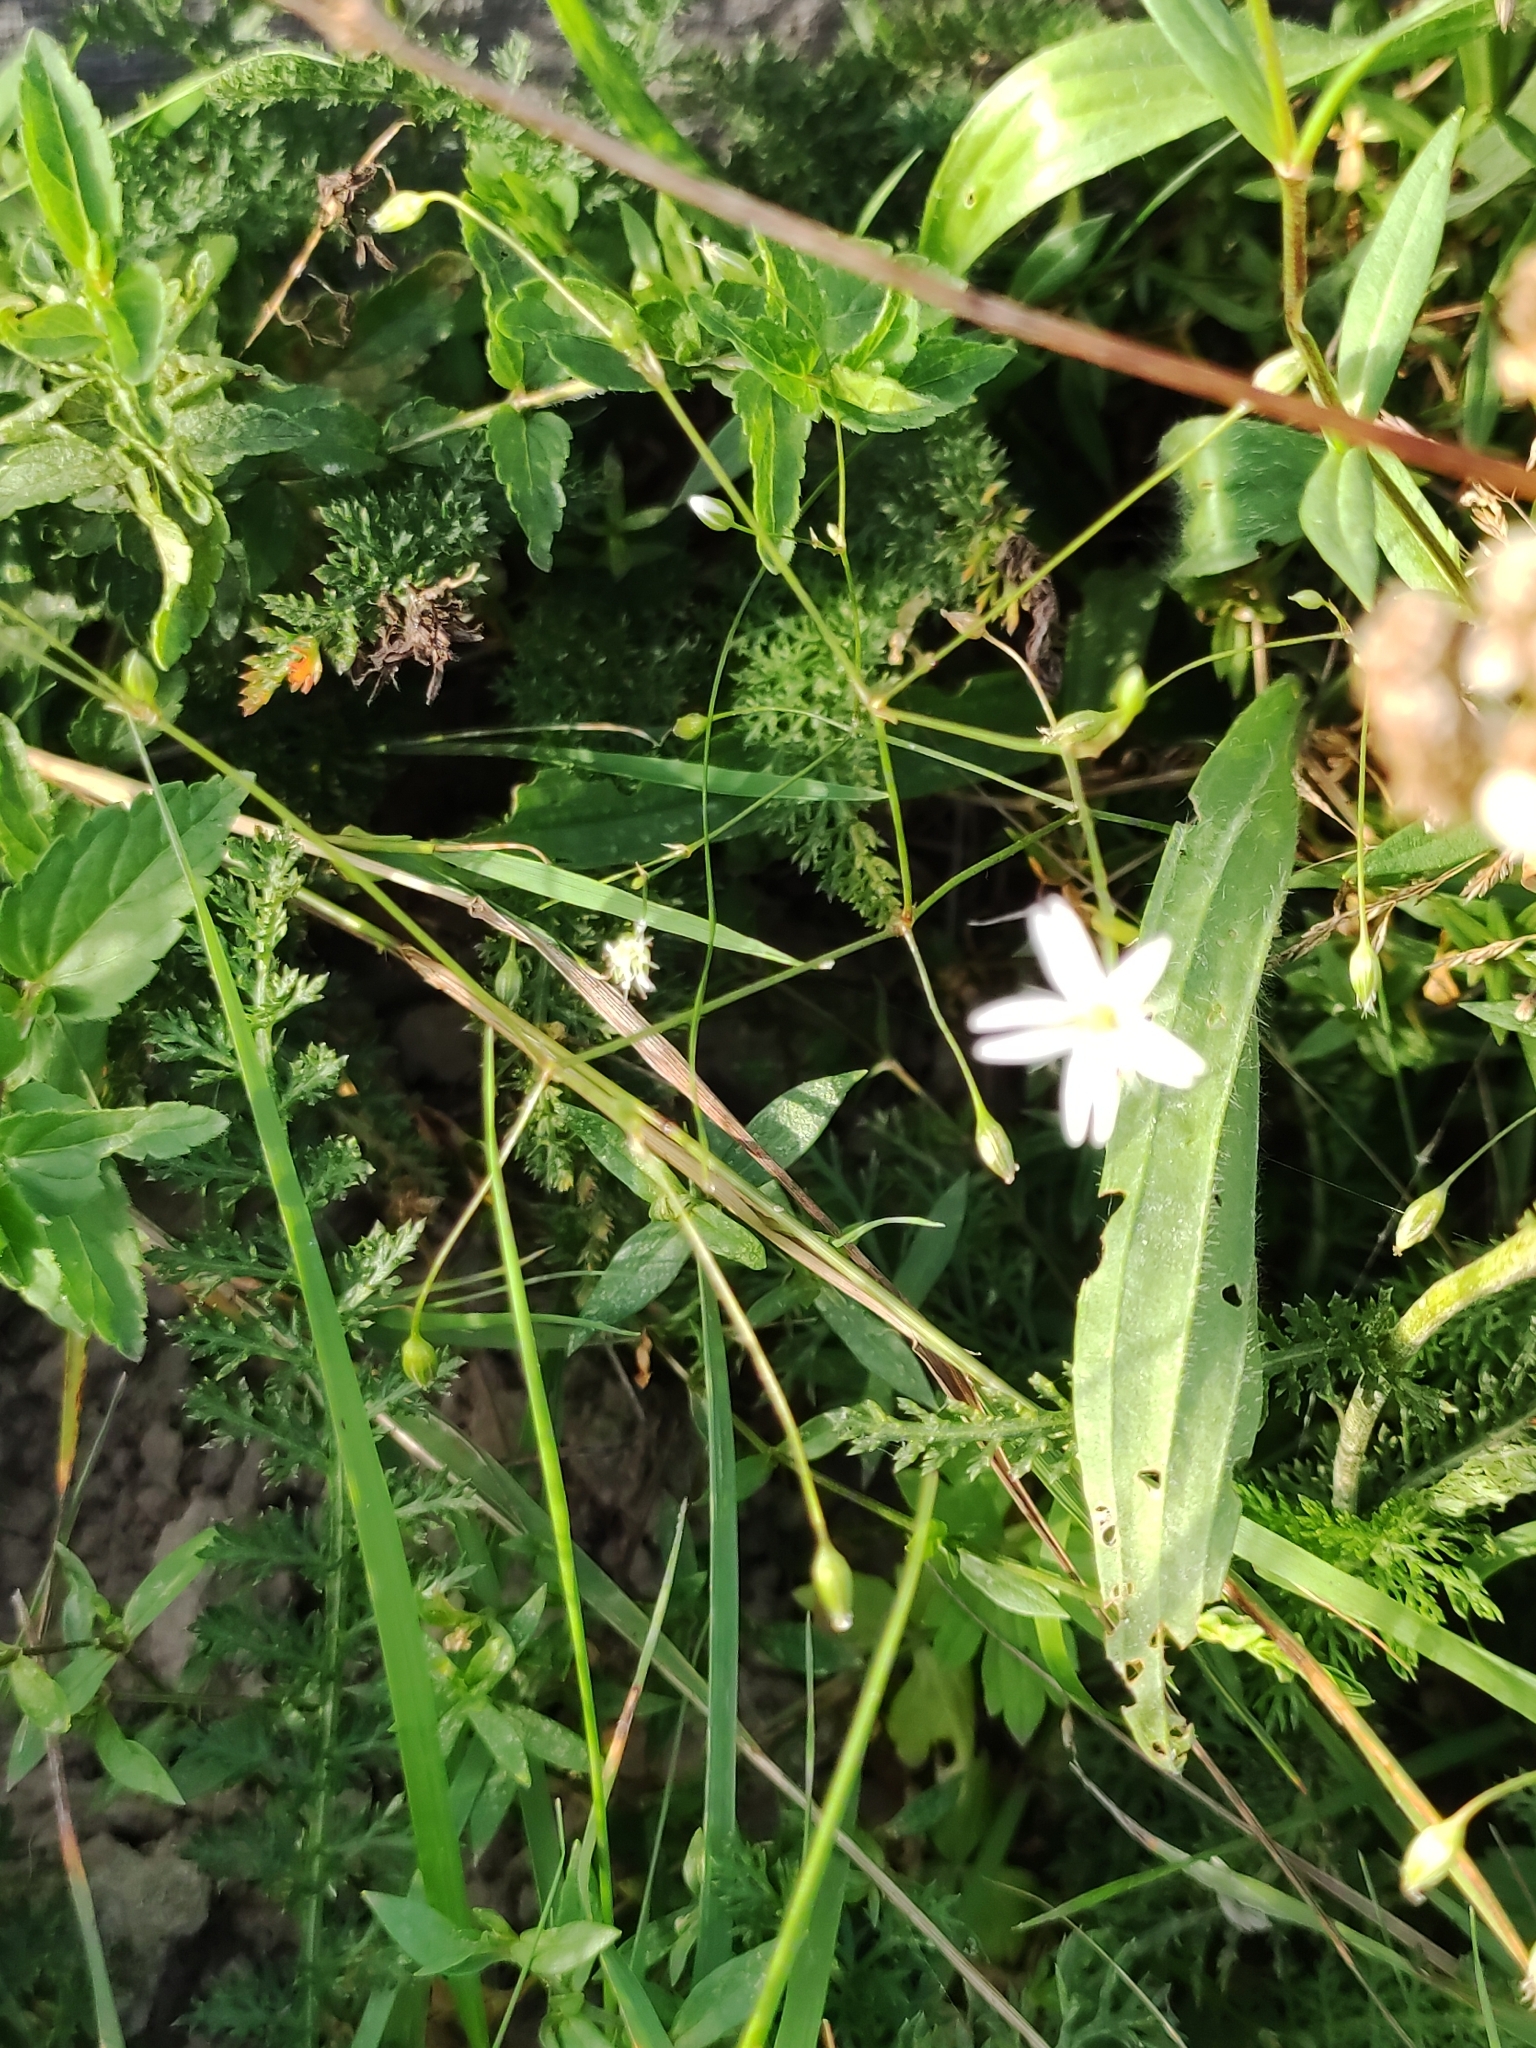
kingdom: Plantae
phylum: Tracheophyta
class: Magnoliopsida
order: Caryophyllales
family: Caryophyllaceae
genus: Stellaria
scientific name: Stellaria graminea
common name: Grass-like starwort
